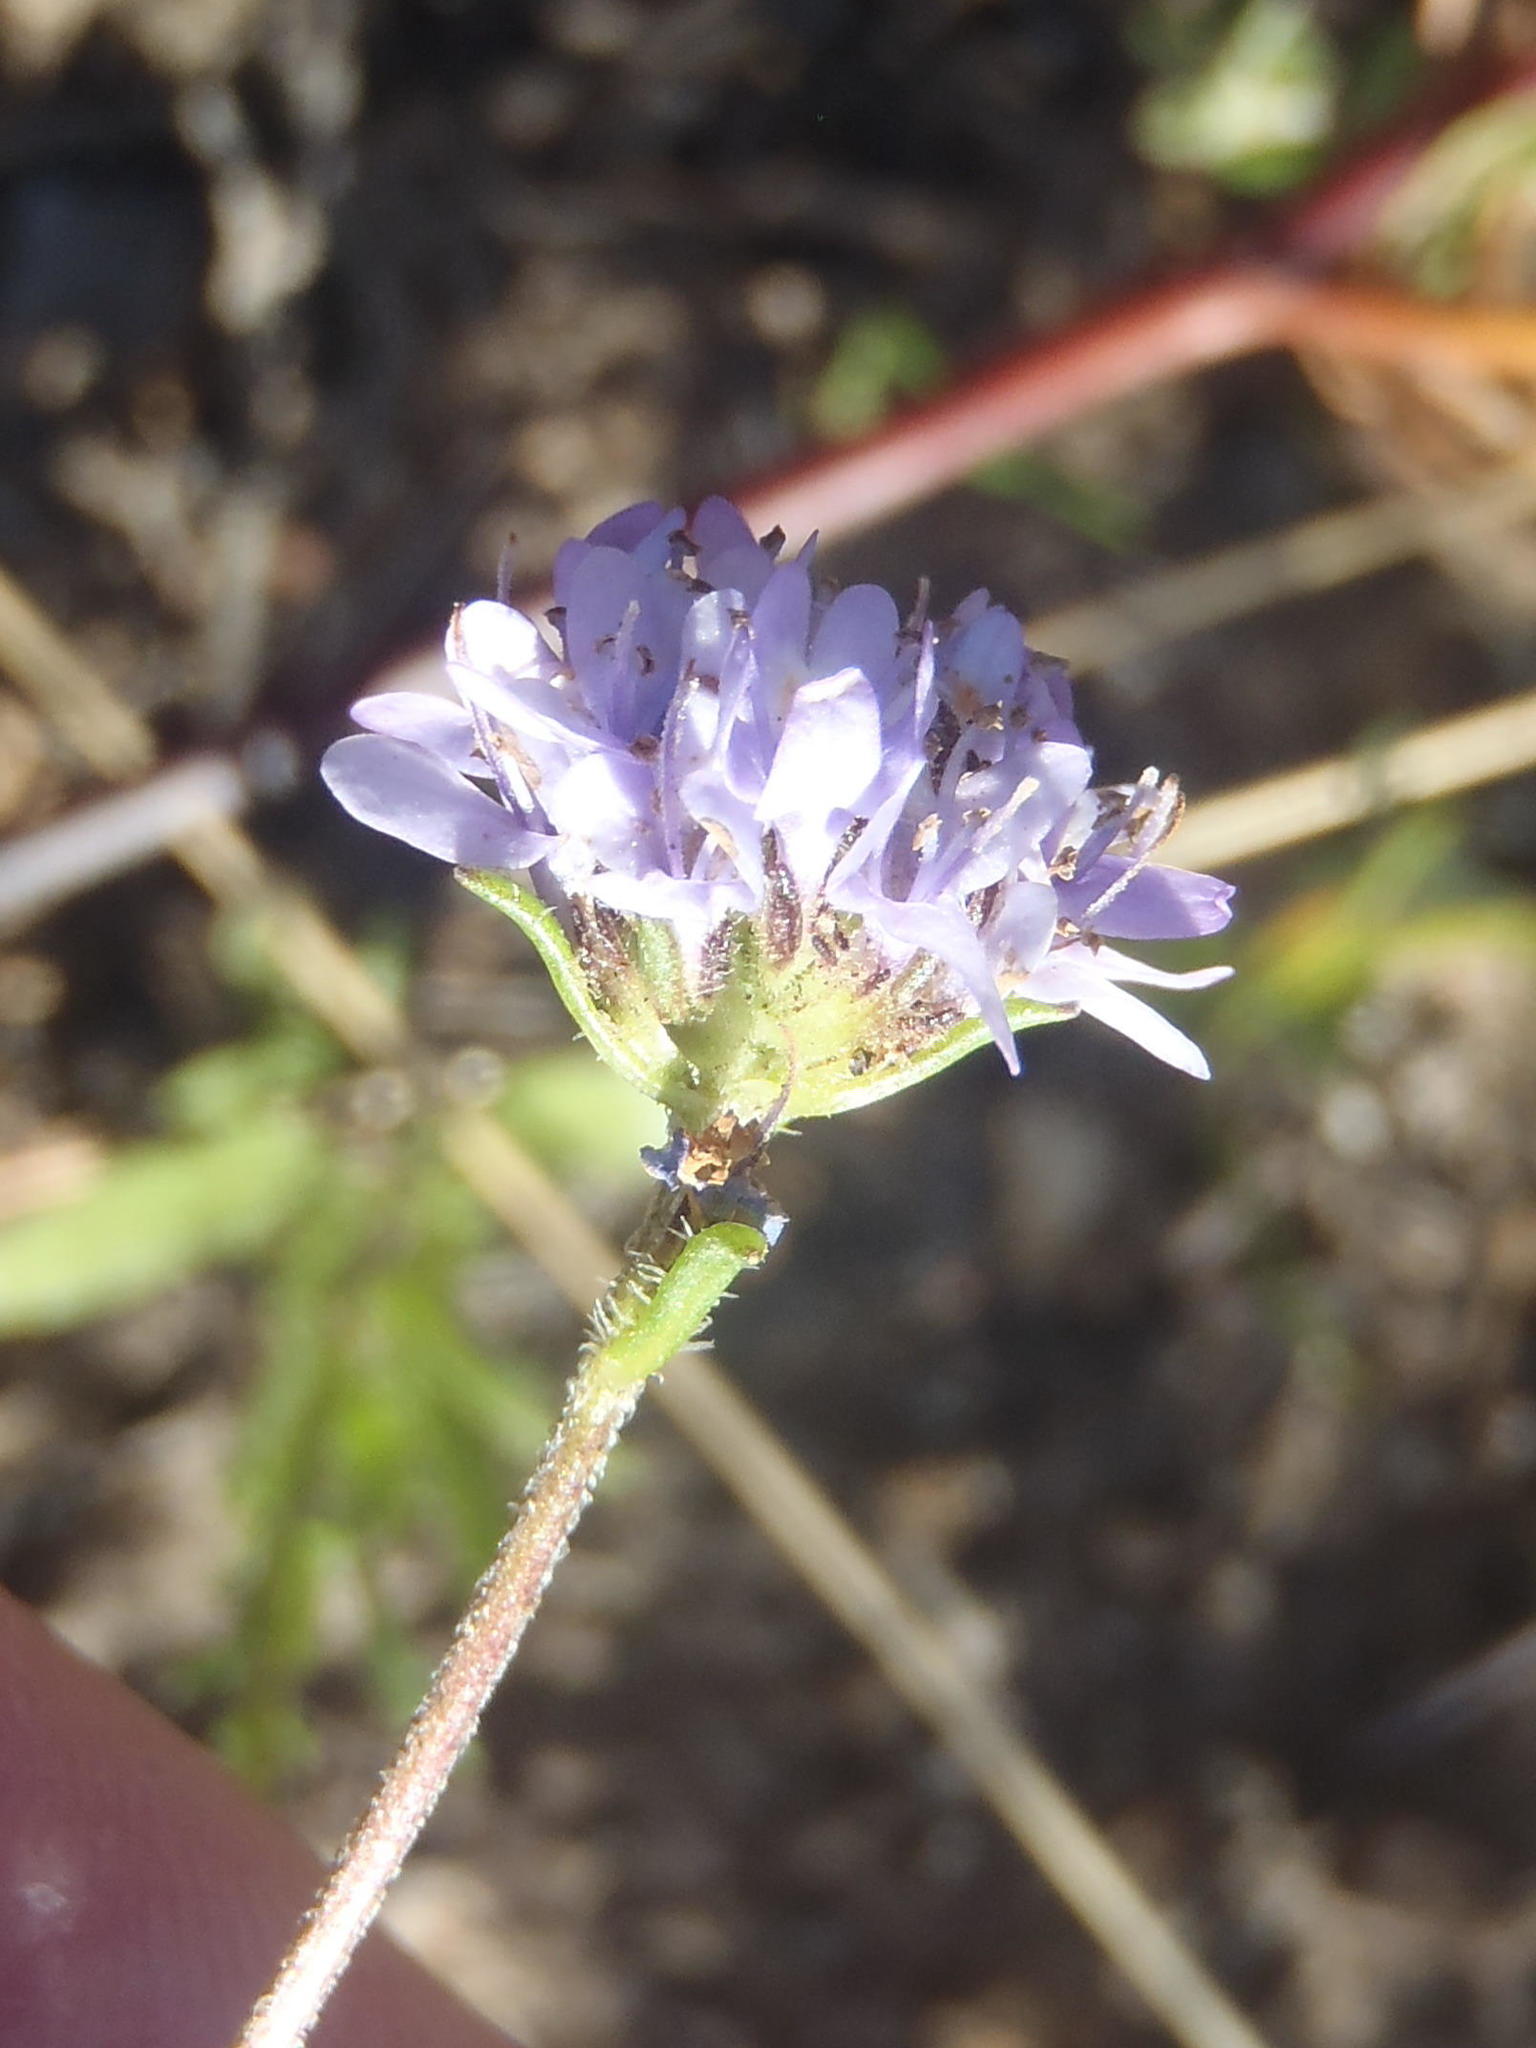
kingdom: Plantae
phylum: Tracheophyta
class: Magnoliopsida
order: Lamiales
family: Scrophulariaceae
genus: Pseudoselago
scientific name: Pseudoselago bella
